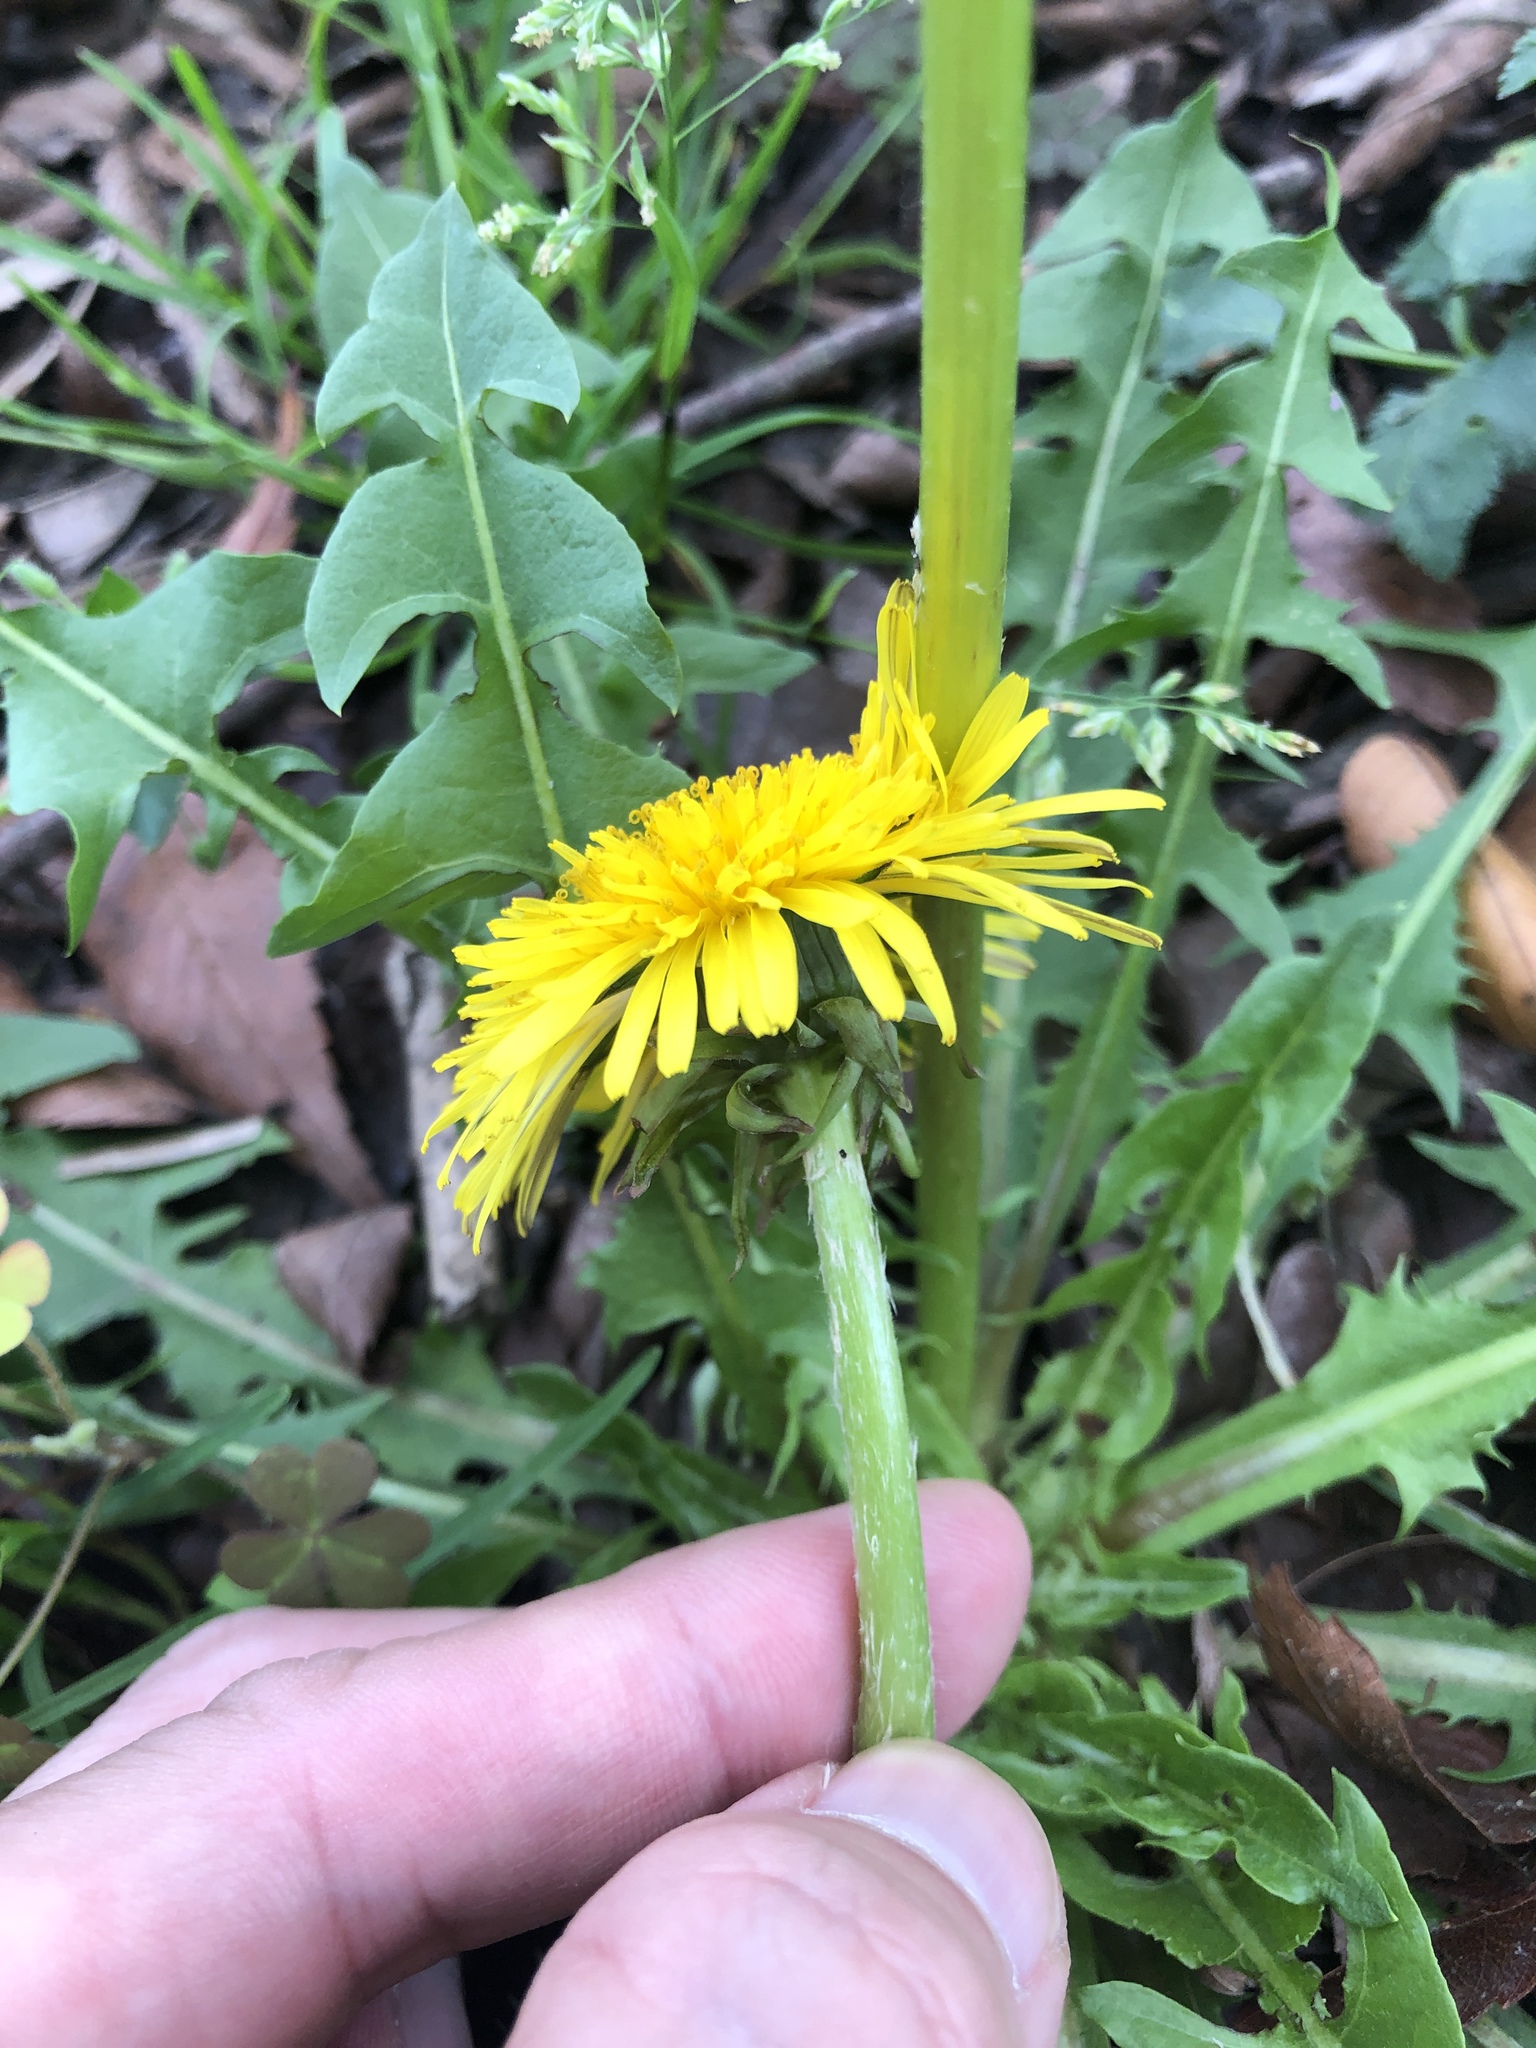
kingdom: Plantae
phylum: Tracheophyta
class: Magnoliopsida
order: Asterales
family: Asteraceae
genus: Taraxacum
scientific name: Taraxacum officinale
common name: Common dandelion
